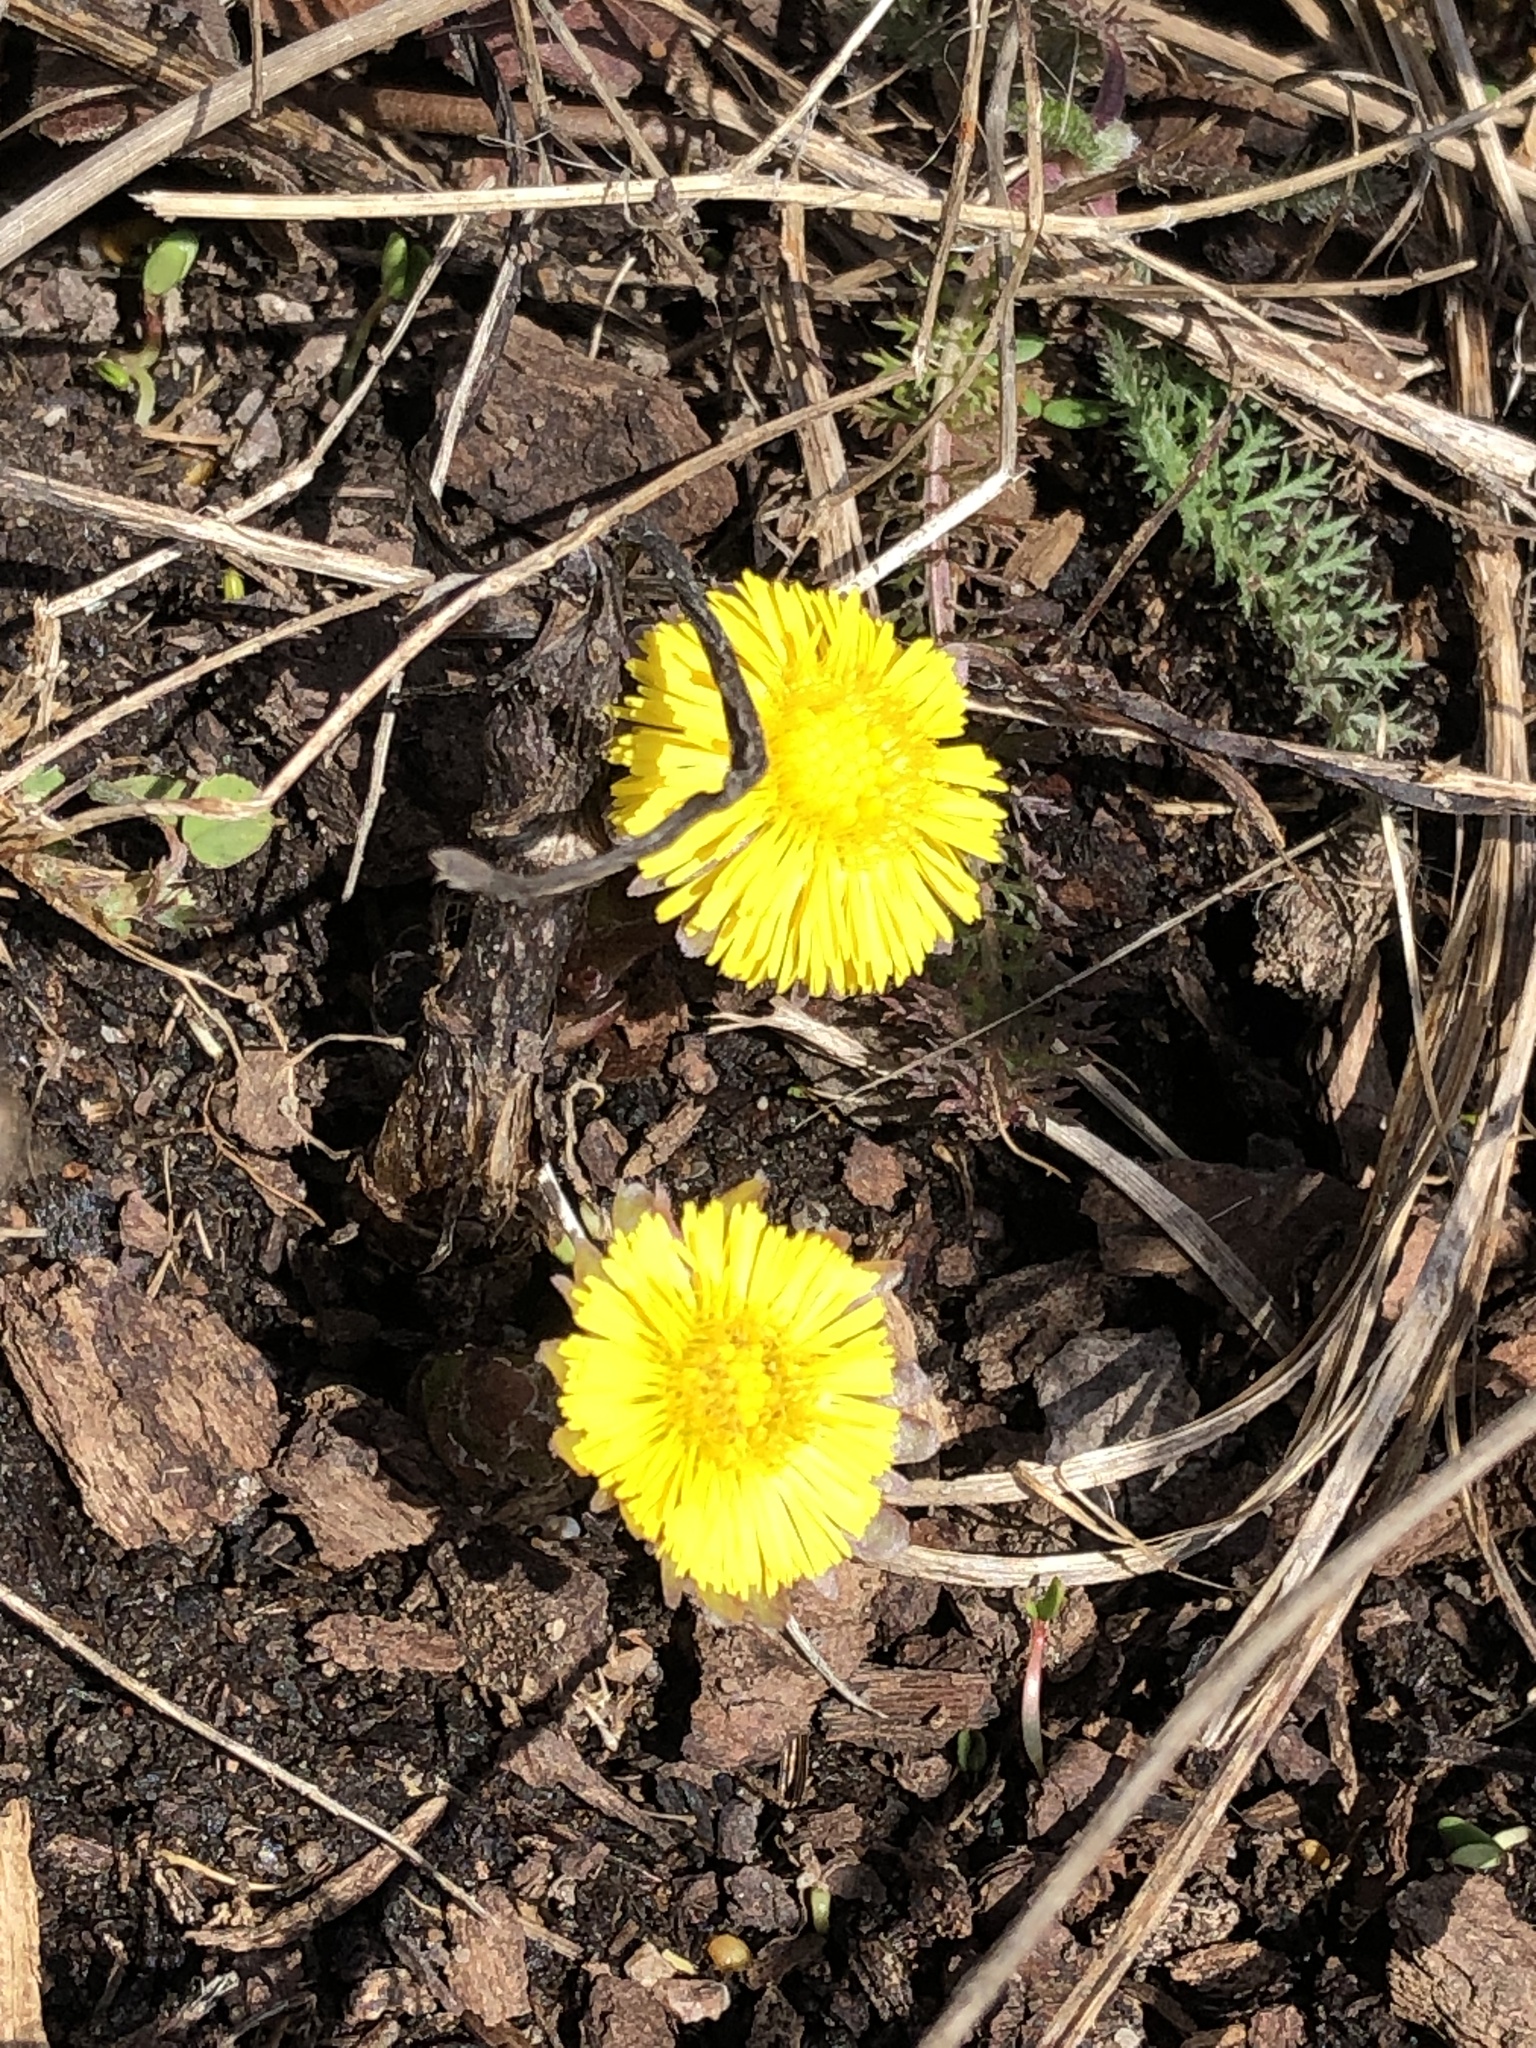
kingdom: Plantae
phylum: Tracheophyta
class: Magnoliopsida
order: Asterales
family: Asteraceae
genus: Tussilago
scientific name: Tussilago farfara
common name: Coltsfoot
